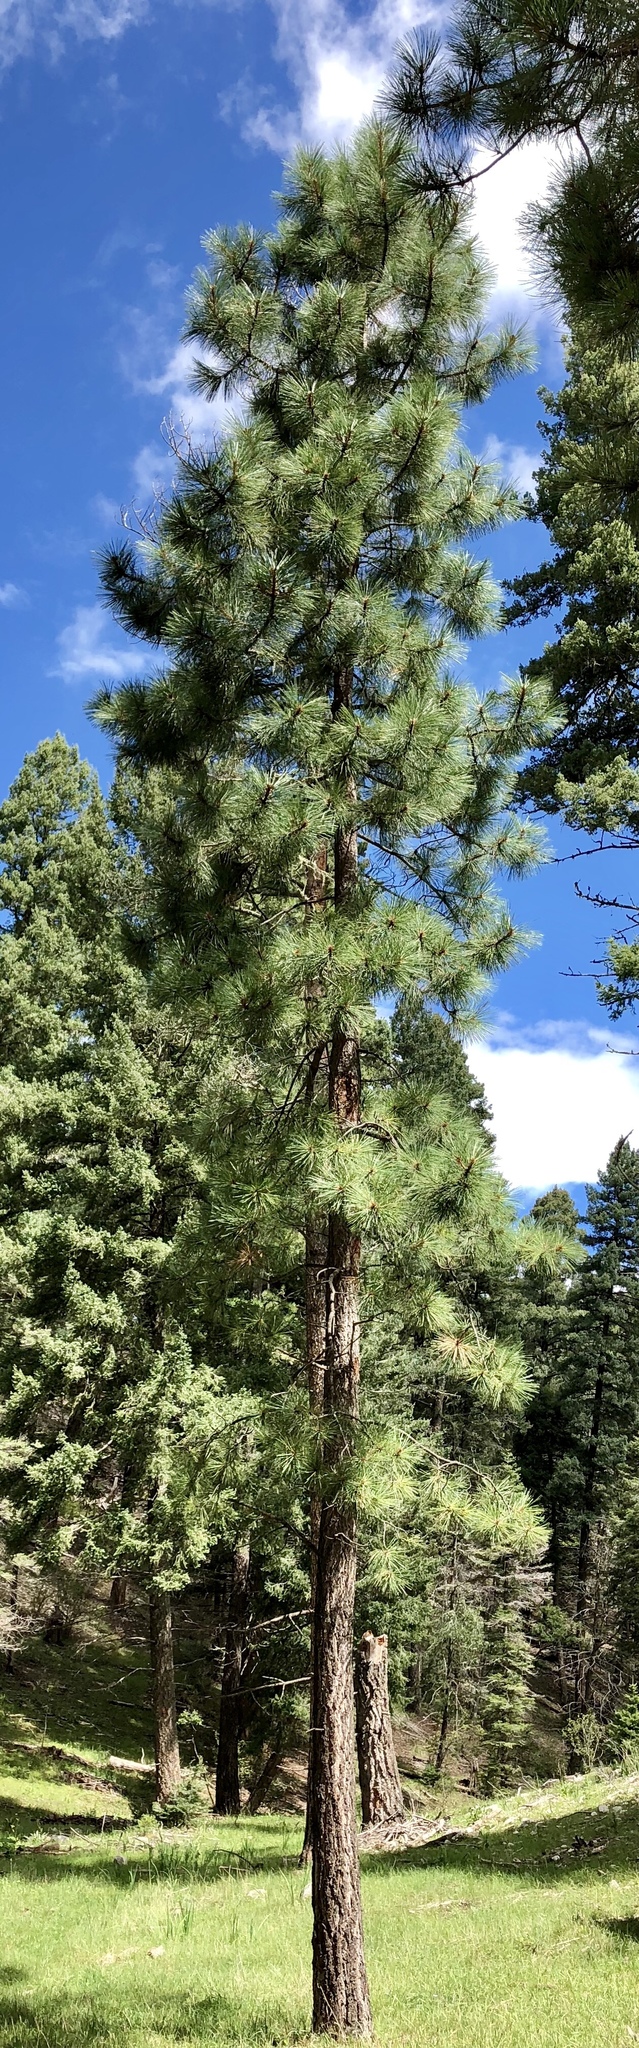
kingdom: Plantae
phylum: Tracheophyta
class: Pinopsida
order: Pinales
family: Pinaceae
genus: Pinus
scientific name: Pinus ponderosa
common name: Western yellow-pine
